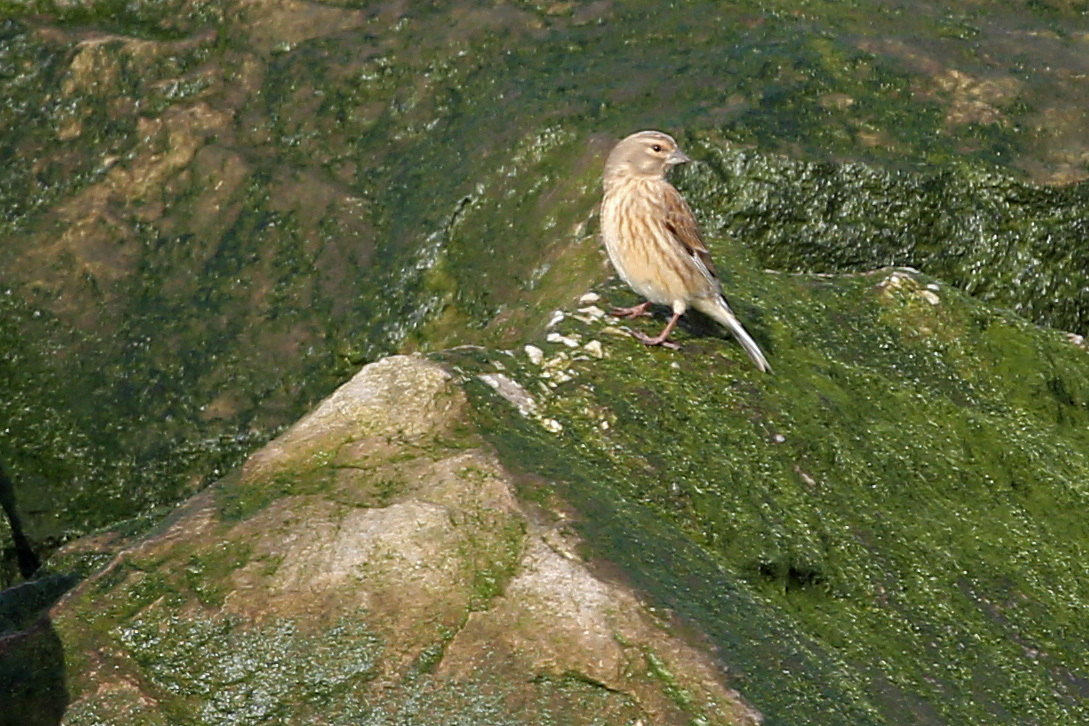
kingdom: Animalia
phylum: Chordata
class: Aves
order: Passeriformes
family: Fringillidae
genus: Linaria
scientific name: Linaria cannabina
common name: Common linnet
